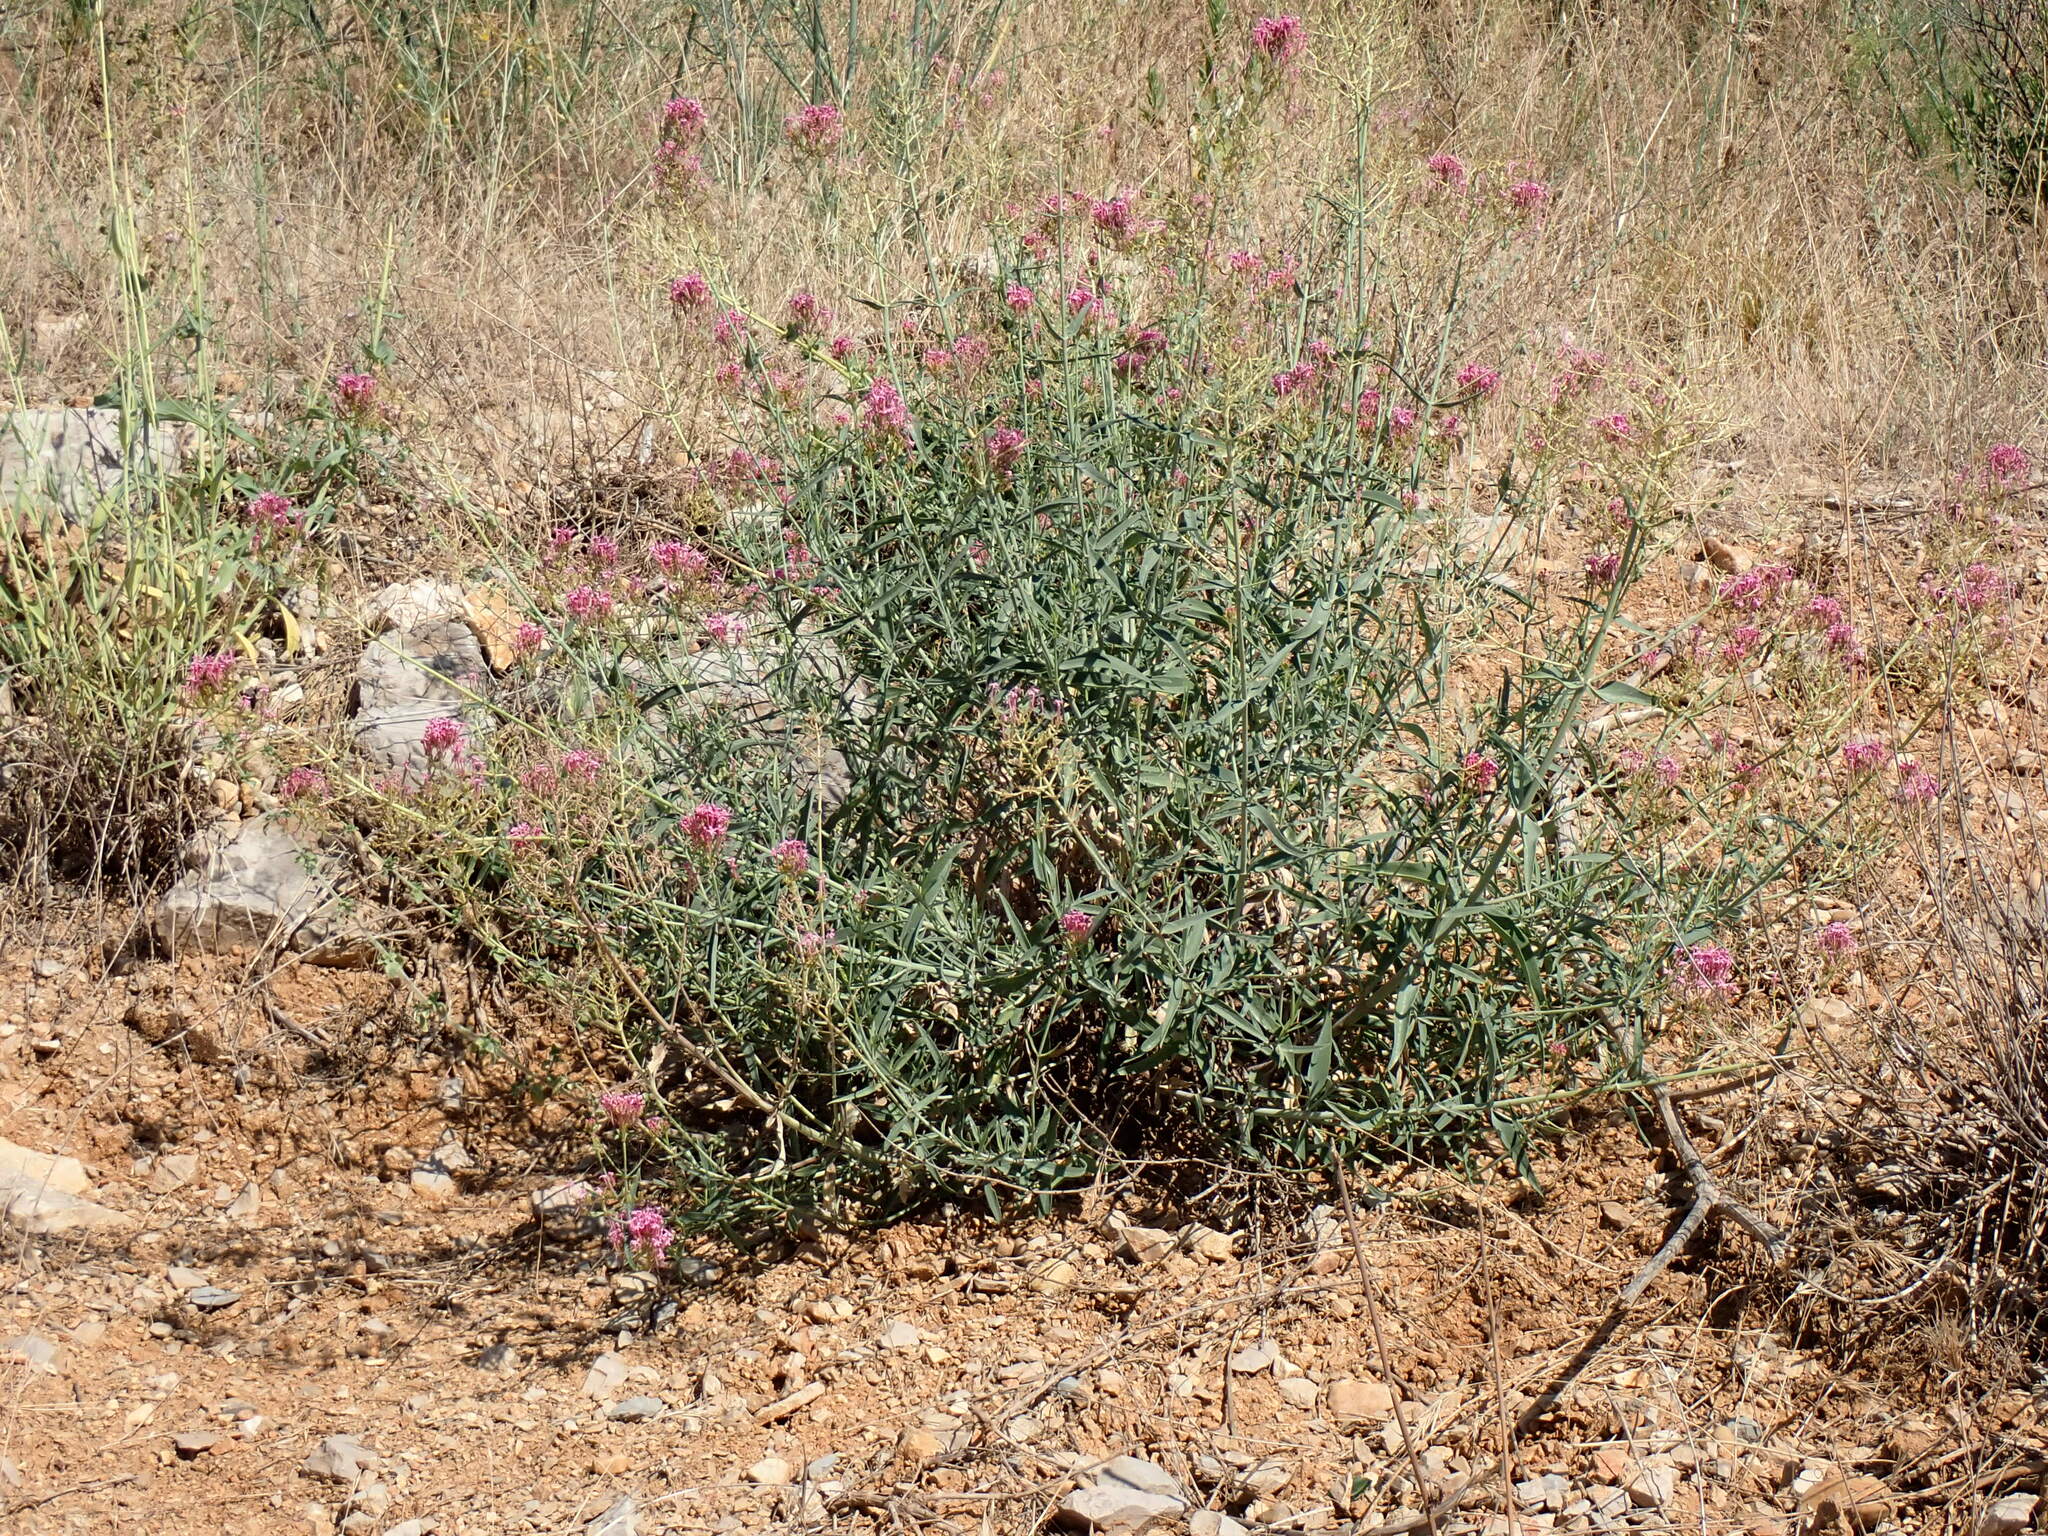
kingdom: Plantae
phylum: Tracheophyta
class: Magnoliopsida
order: Dipsacales
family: Caprifoliaceae
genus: Centranthus
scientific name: Centranthus lecoqii
